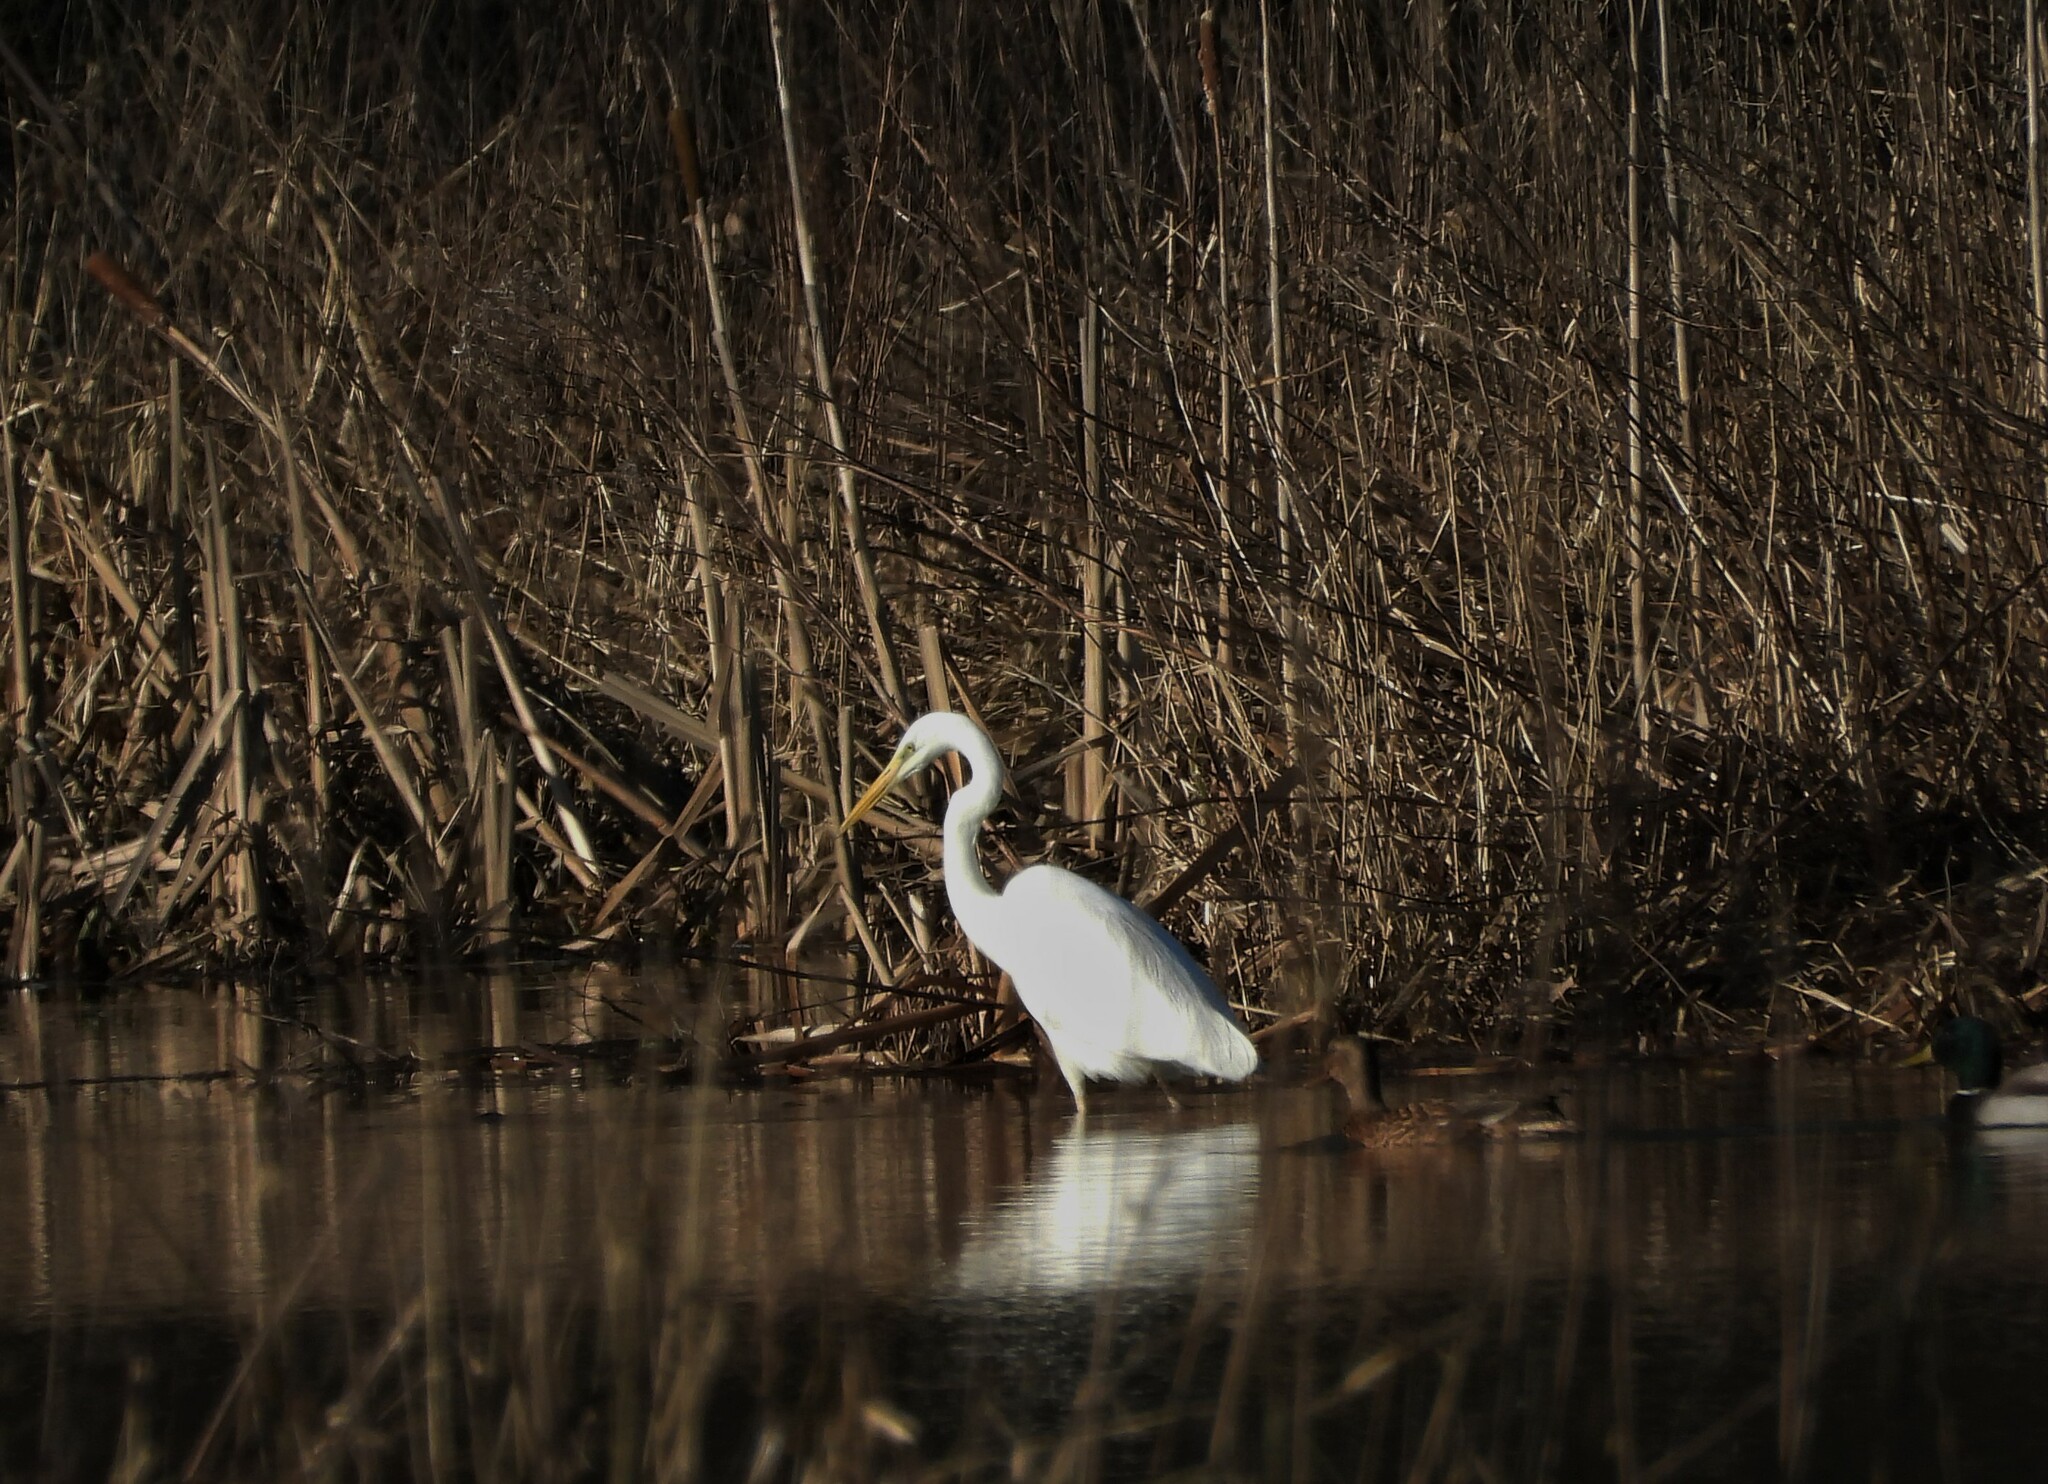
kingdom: Animalia
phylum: Chordata
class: Aves
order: Pelecaniformes
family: Ardeidae
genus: Ardea
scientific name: Ardea alba
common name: Great egret
